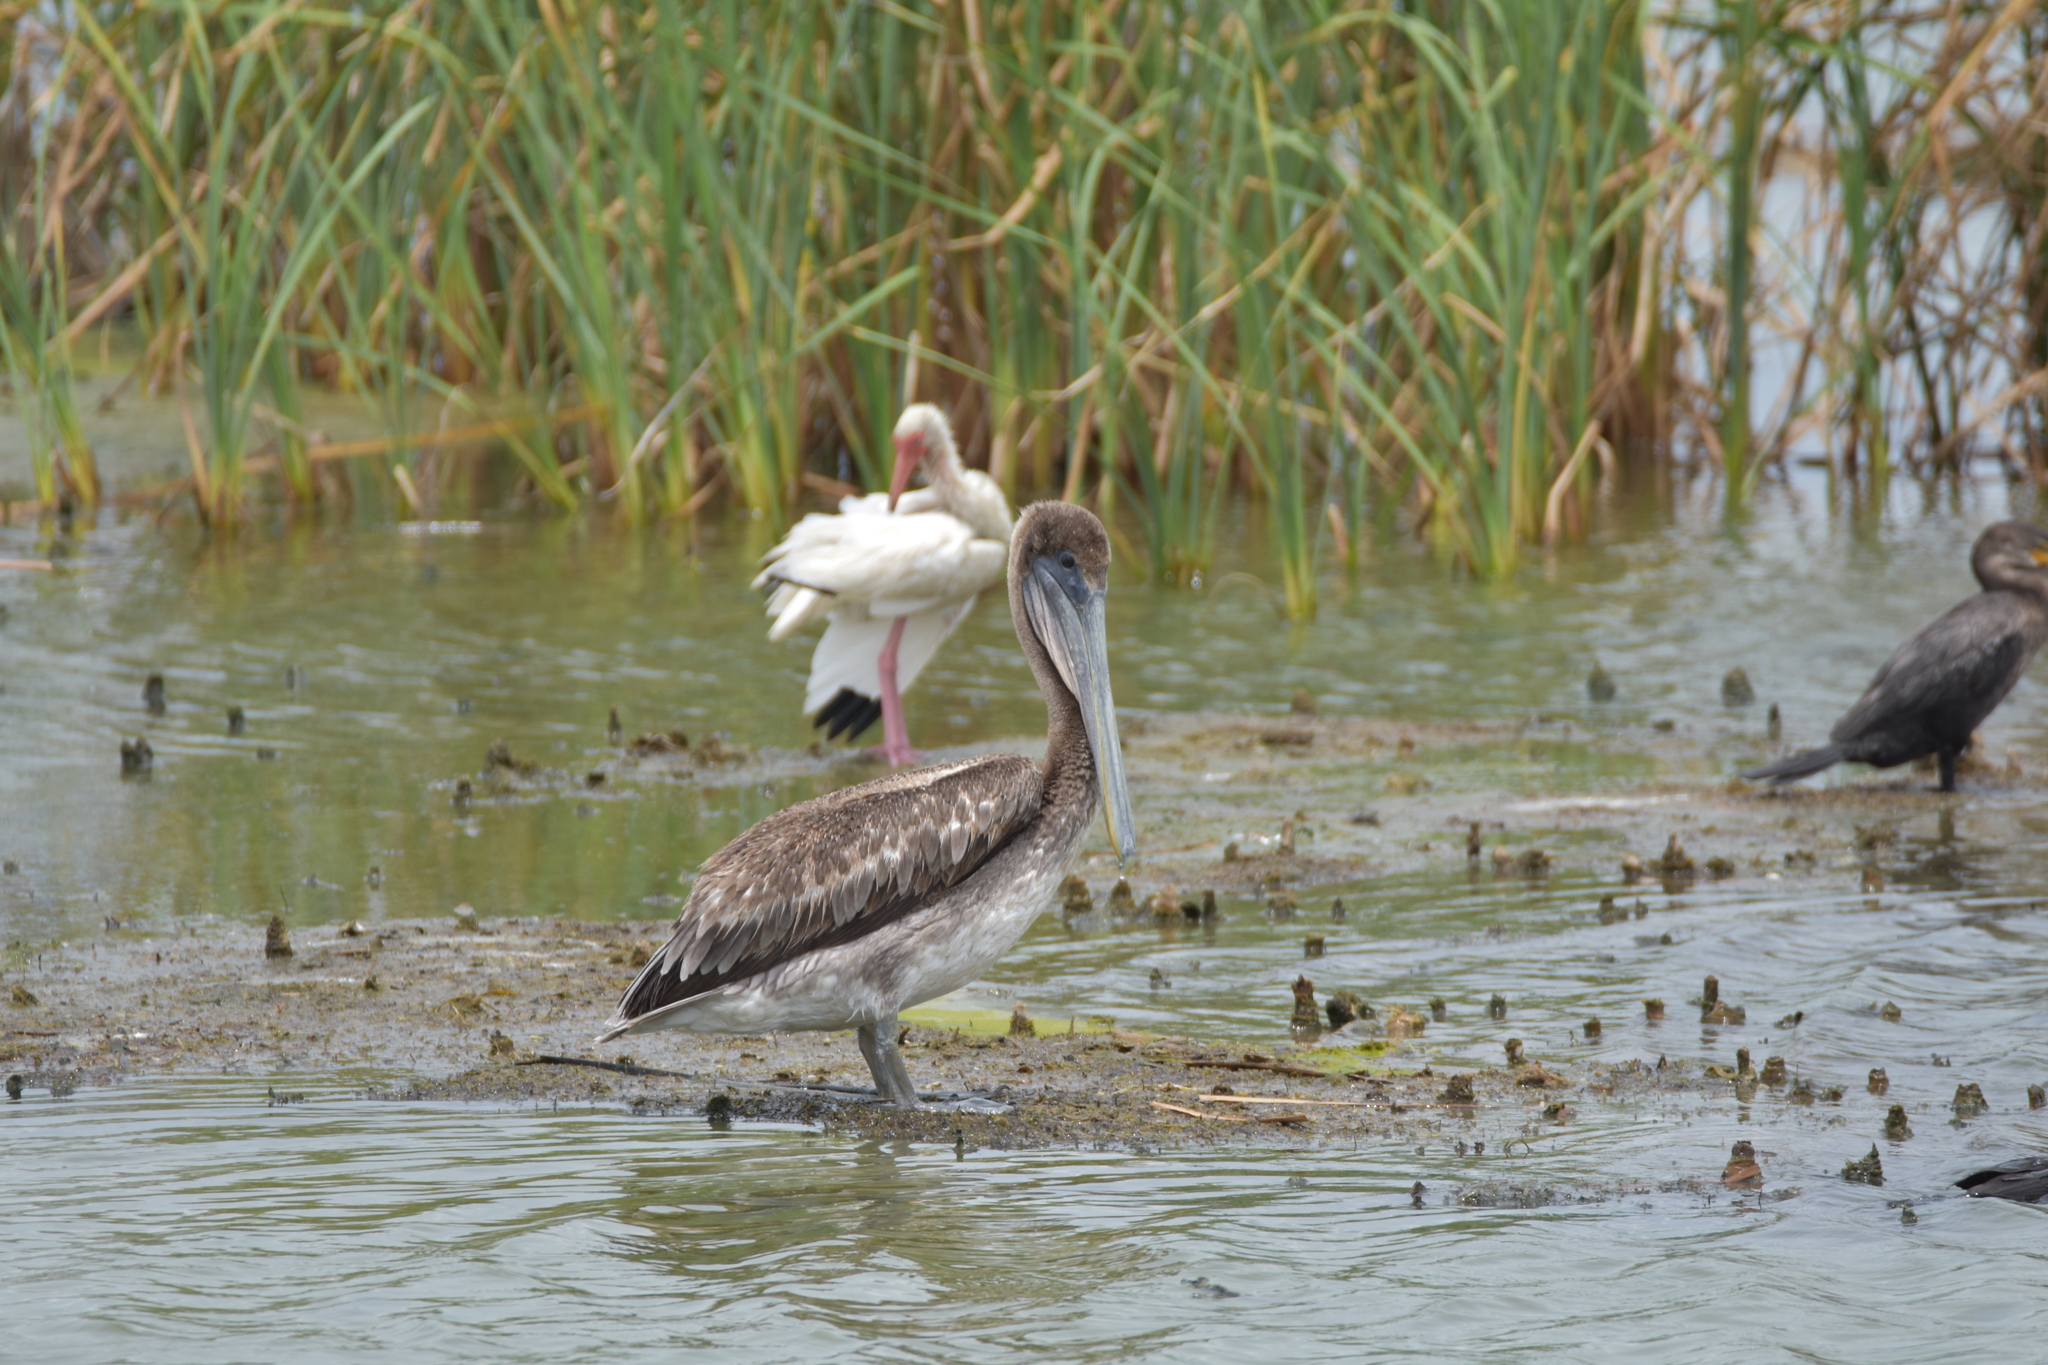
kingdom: Animalia
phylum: Chordata
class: Aves
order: Pelecaniformes
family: Pelecanidae
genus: Pelecanus
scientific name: Pelecanus occidentalis
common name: Brown pelican
